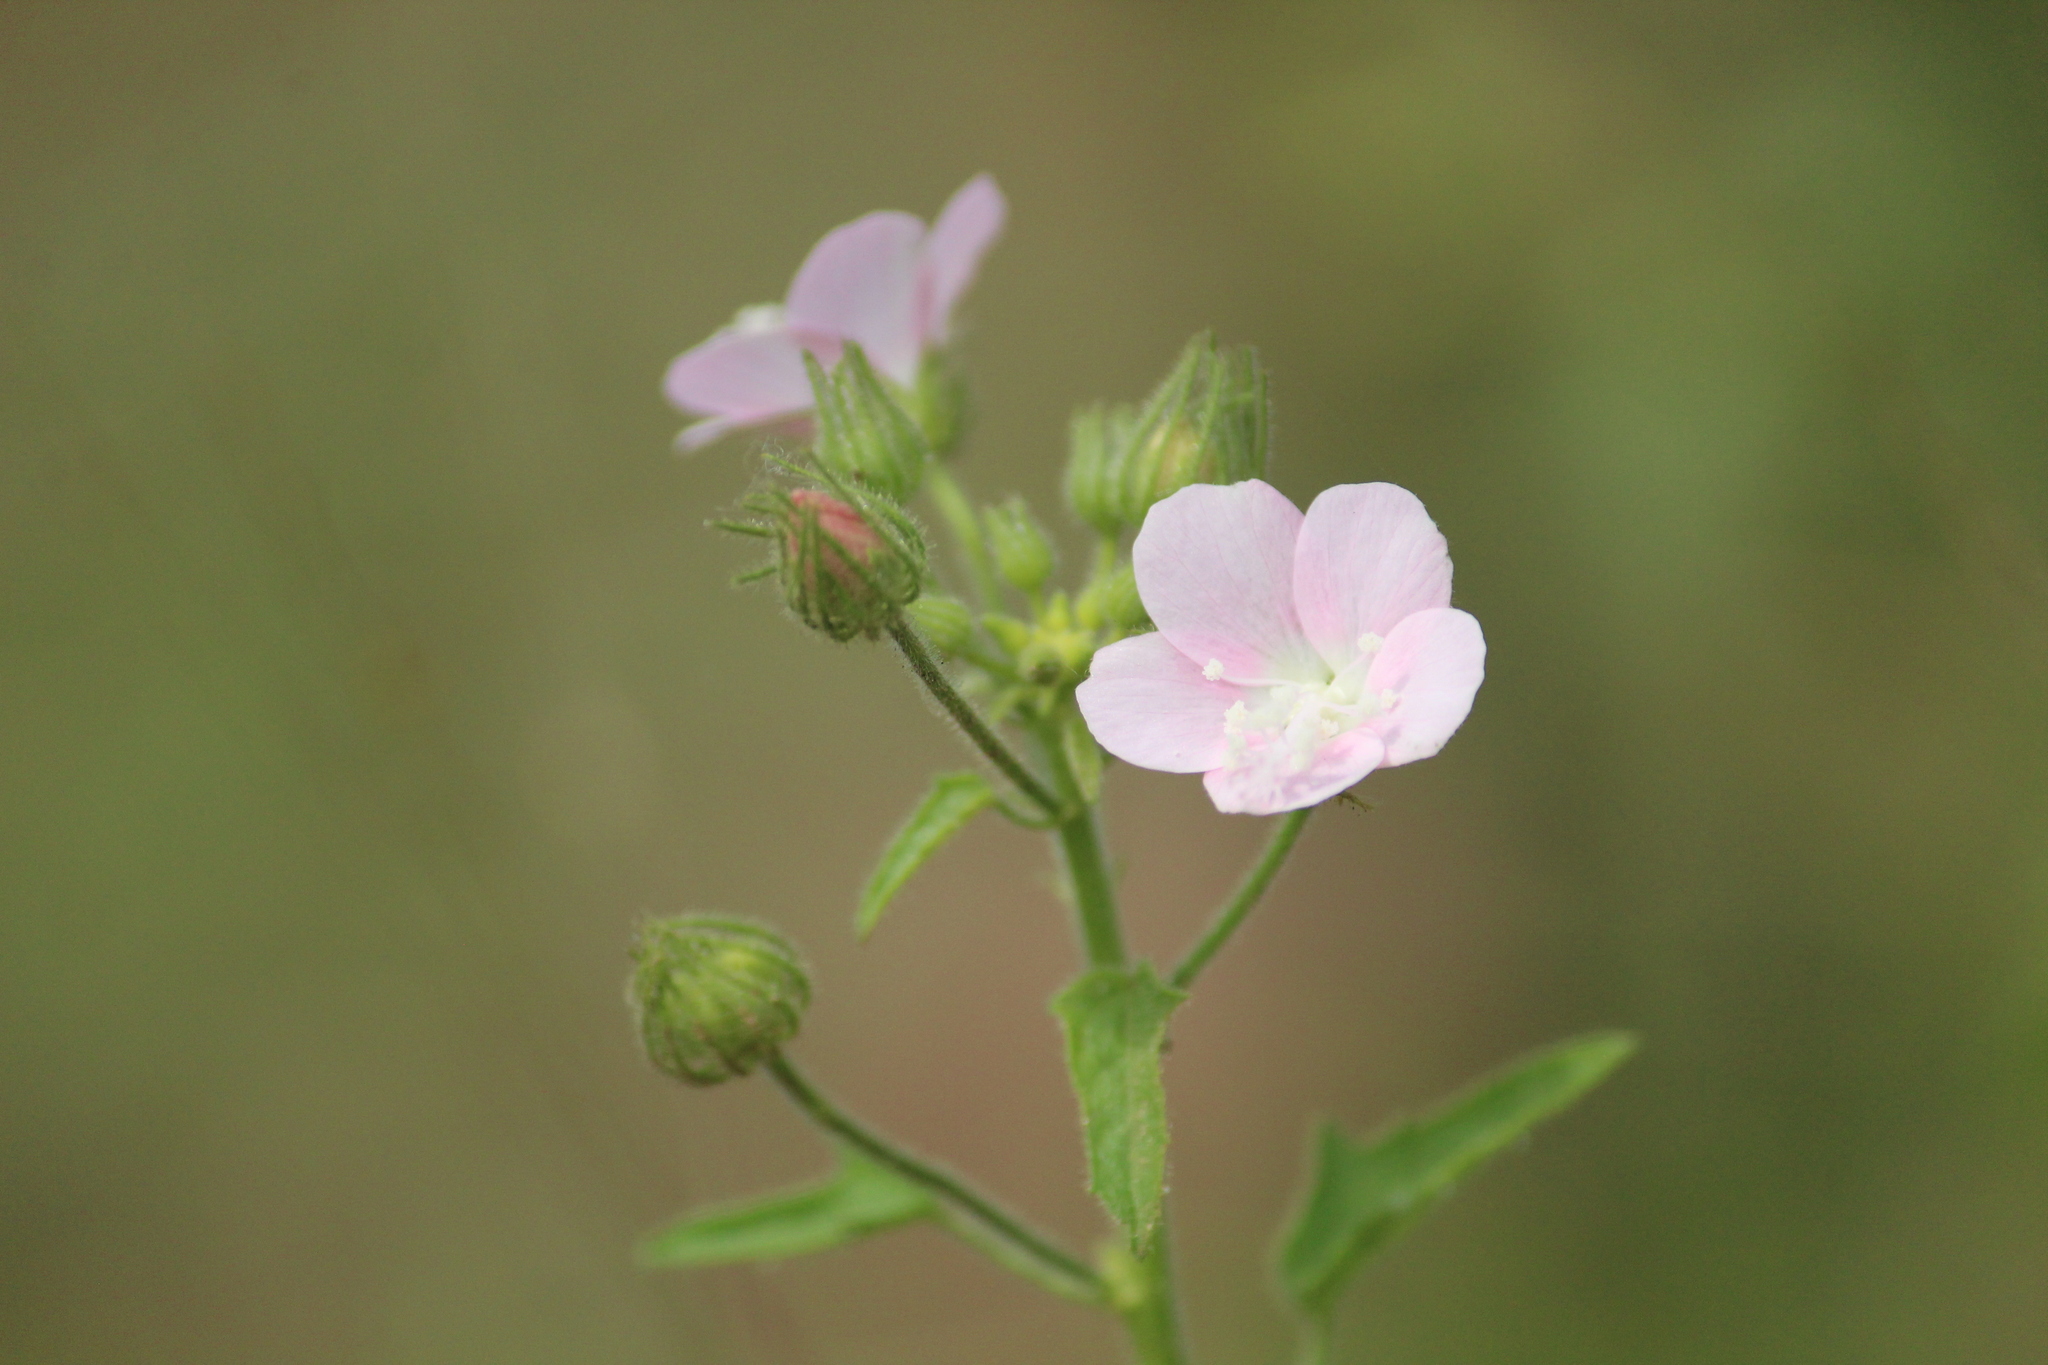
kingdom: Plantae
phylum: Tracheophyta
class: Magnoliopsida
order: Malvales
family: Malvaceae
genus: Pavonia
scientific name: Pavonia zeylanica
